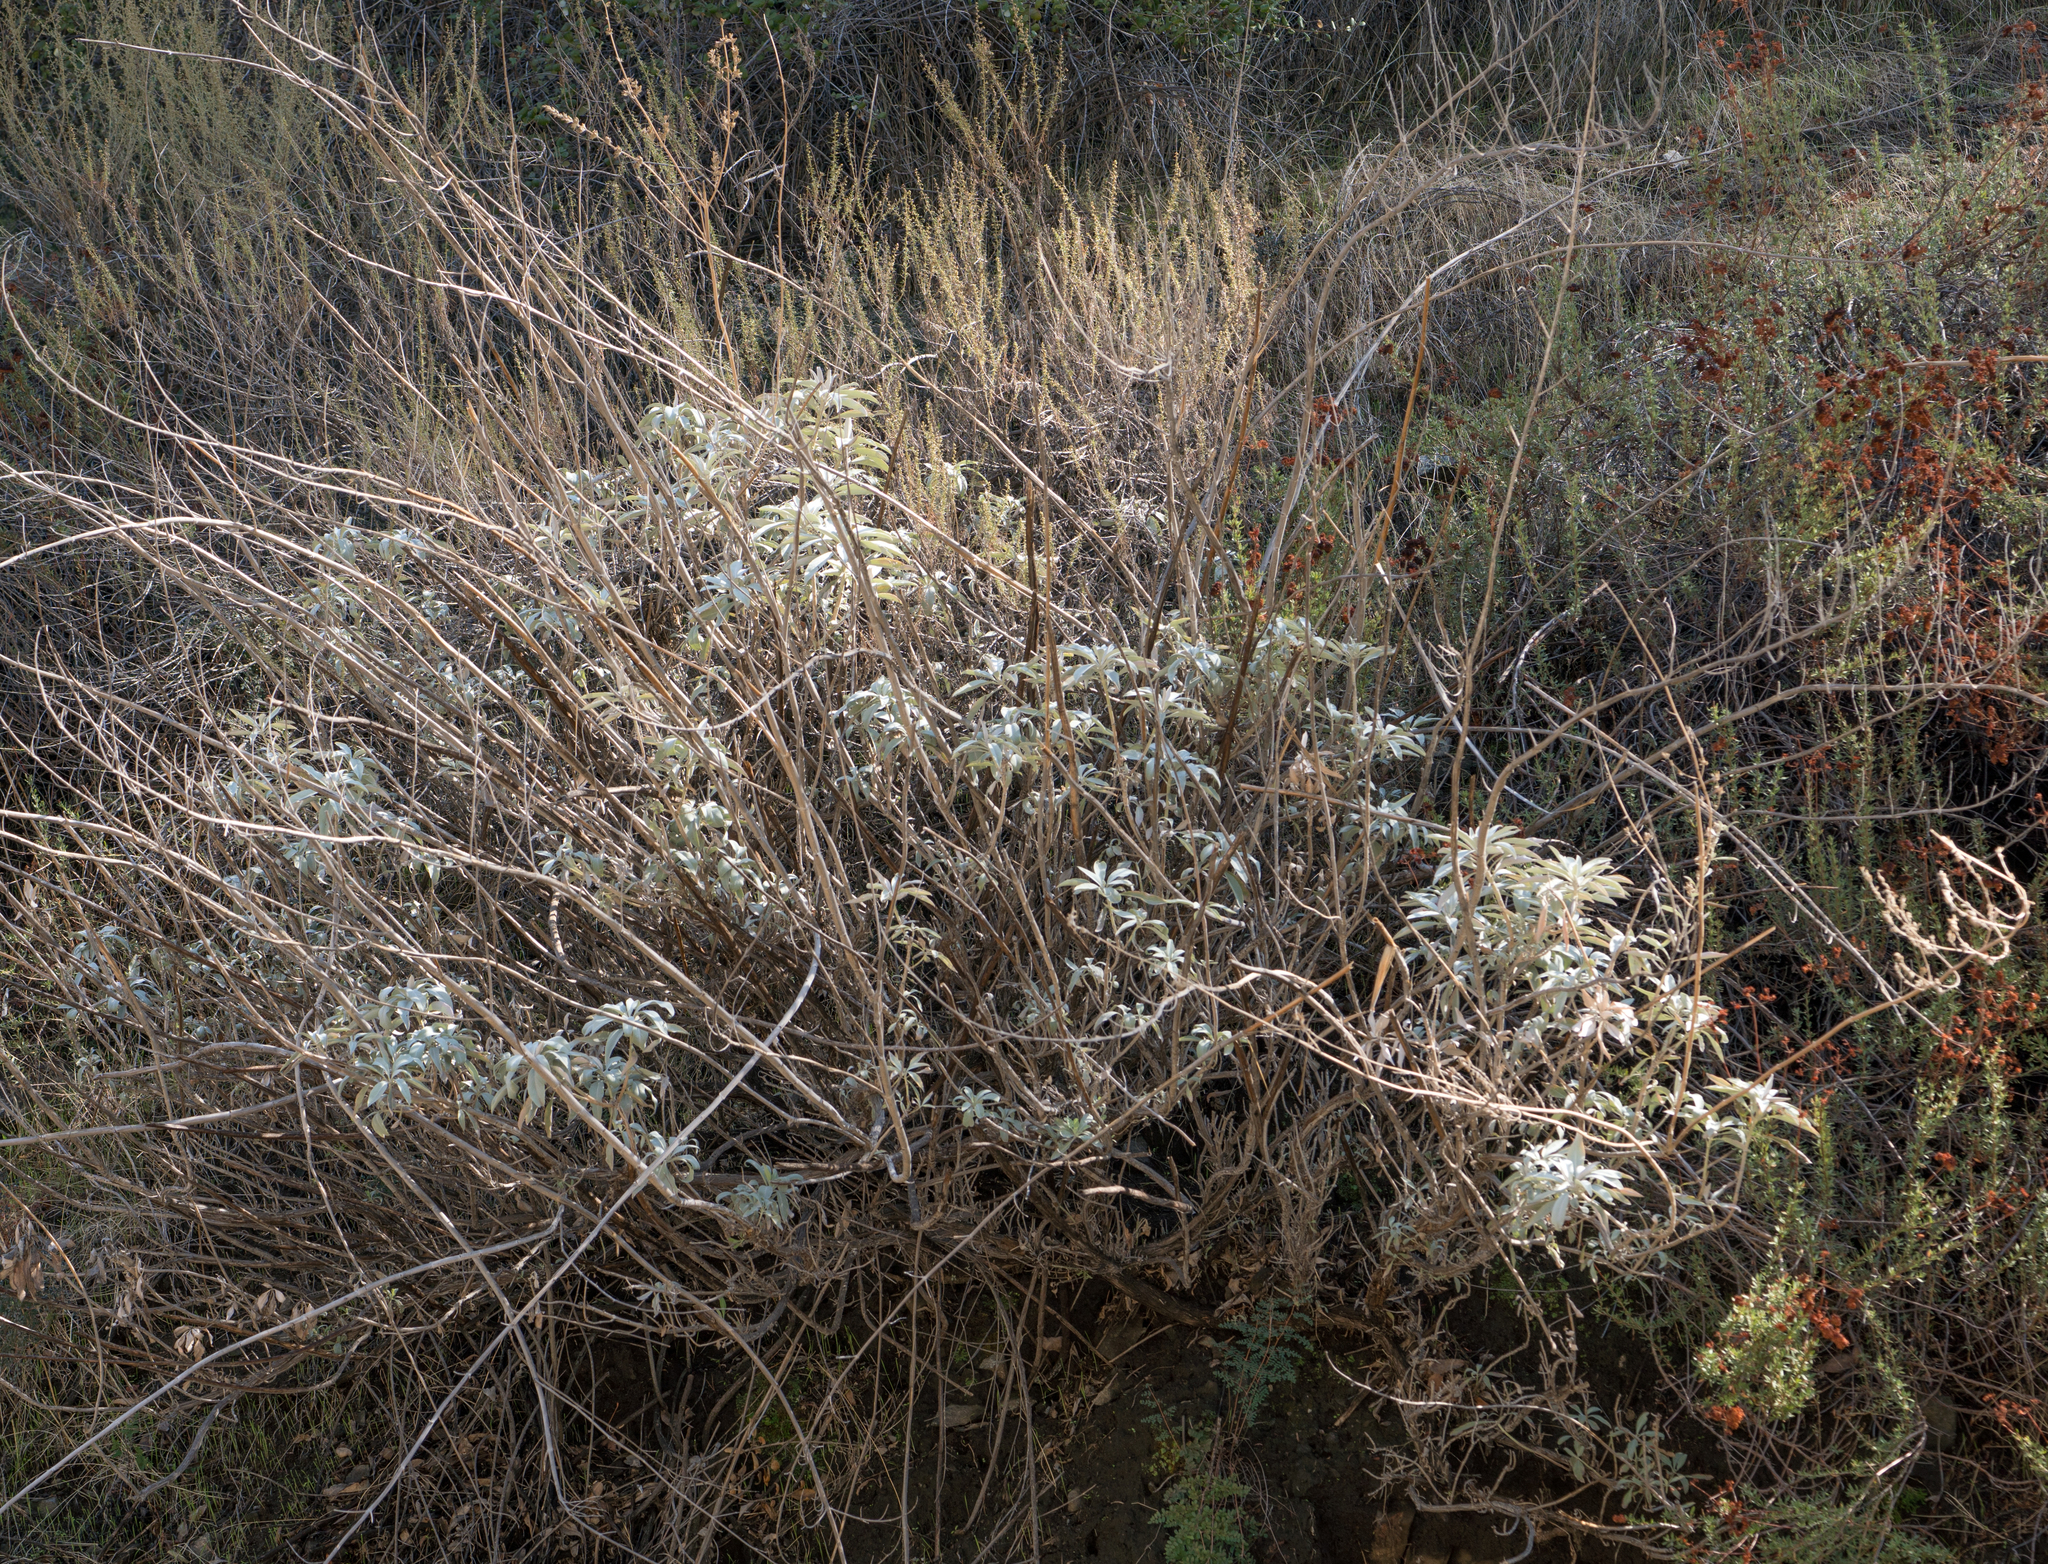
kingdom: Plantae
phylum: Tracheophyta
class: Magnoliopsida
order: Lamiales
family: Lamiaceae
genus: Salvia
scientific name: Salvia apiana
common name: White sage
